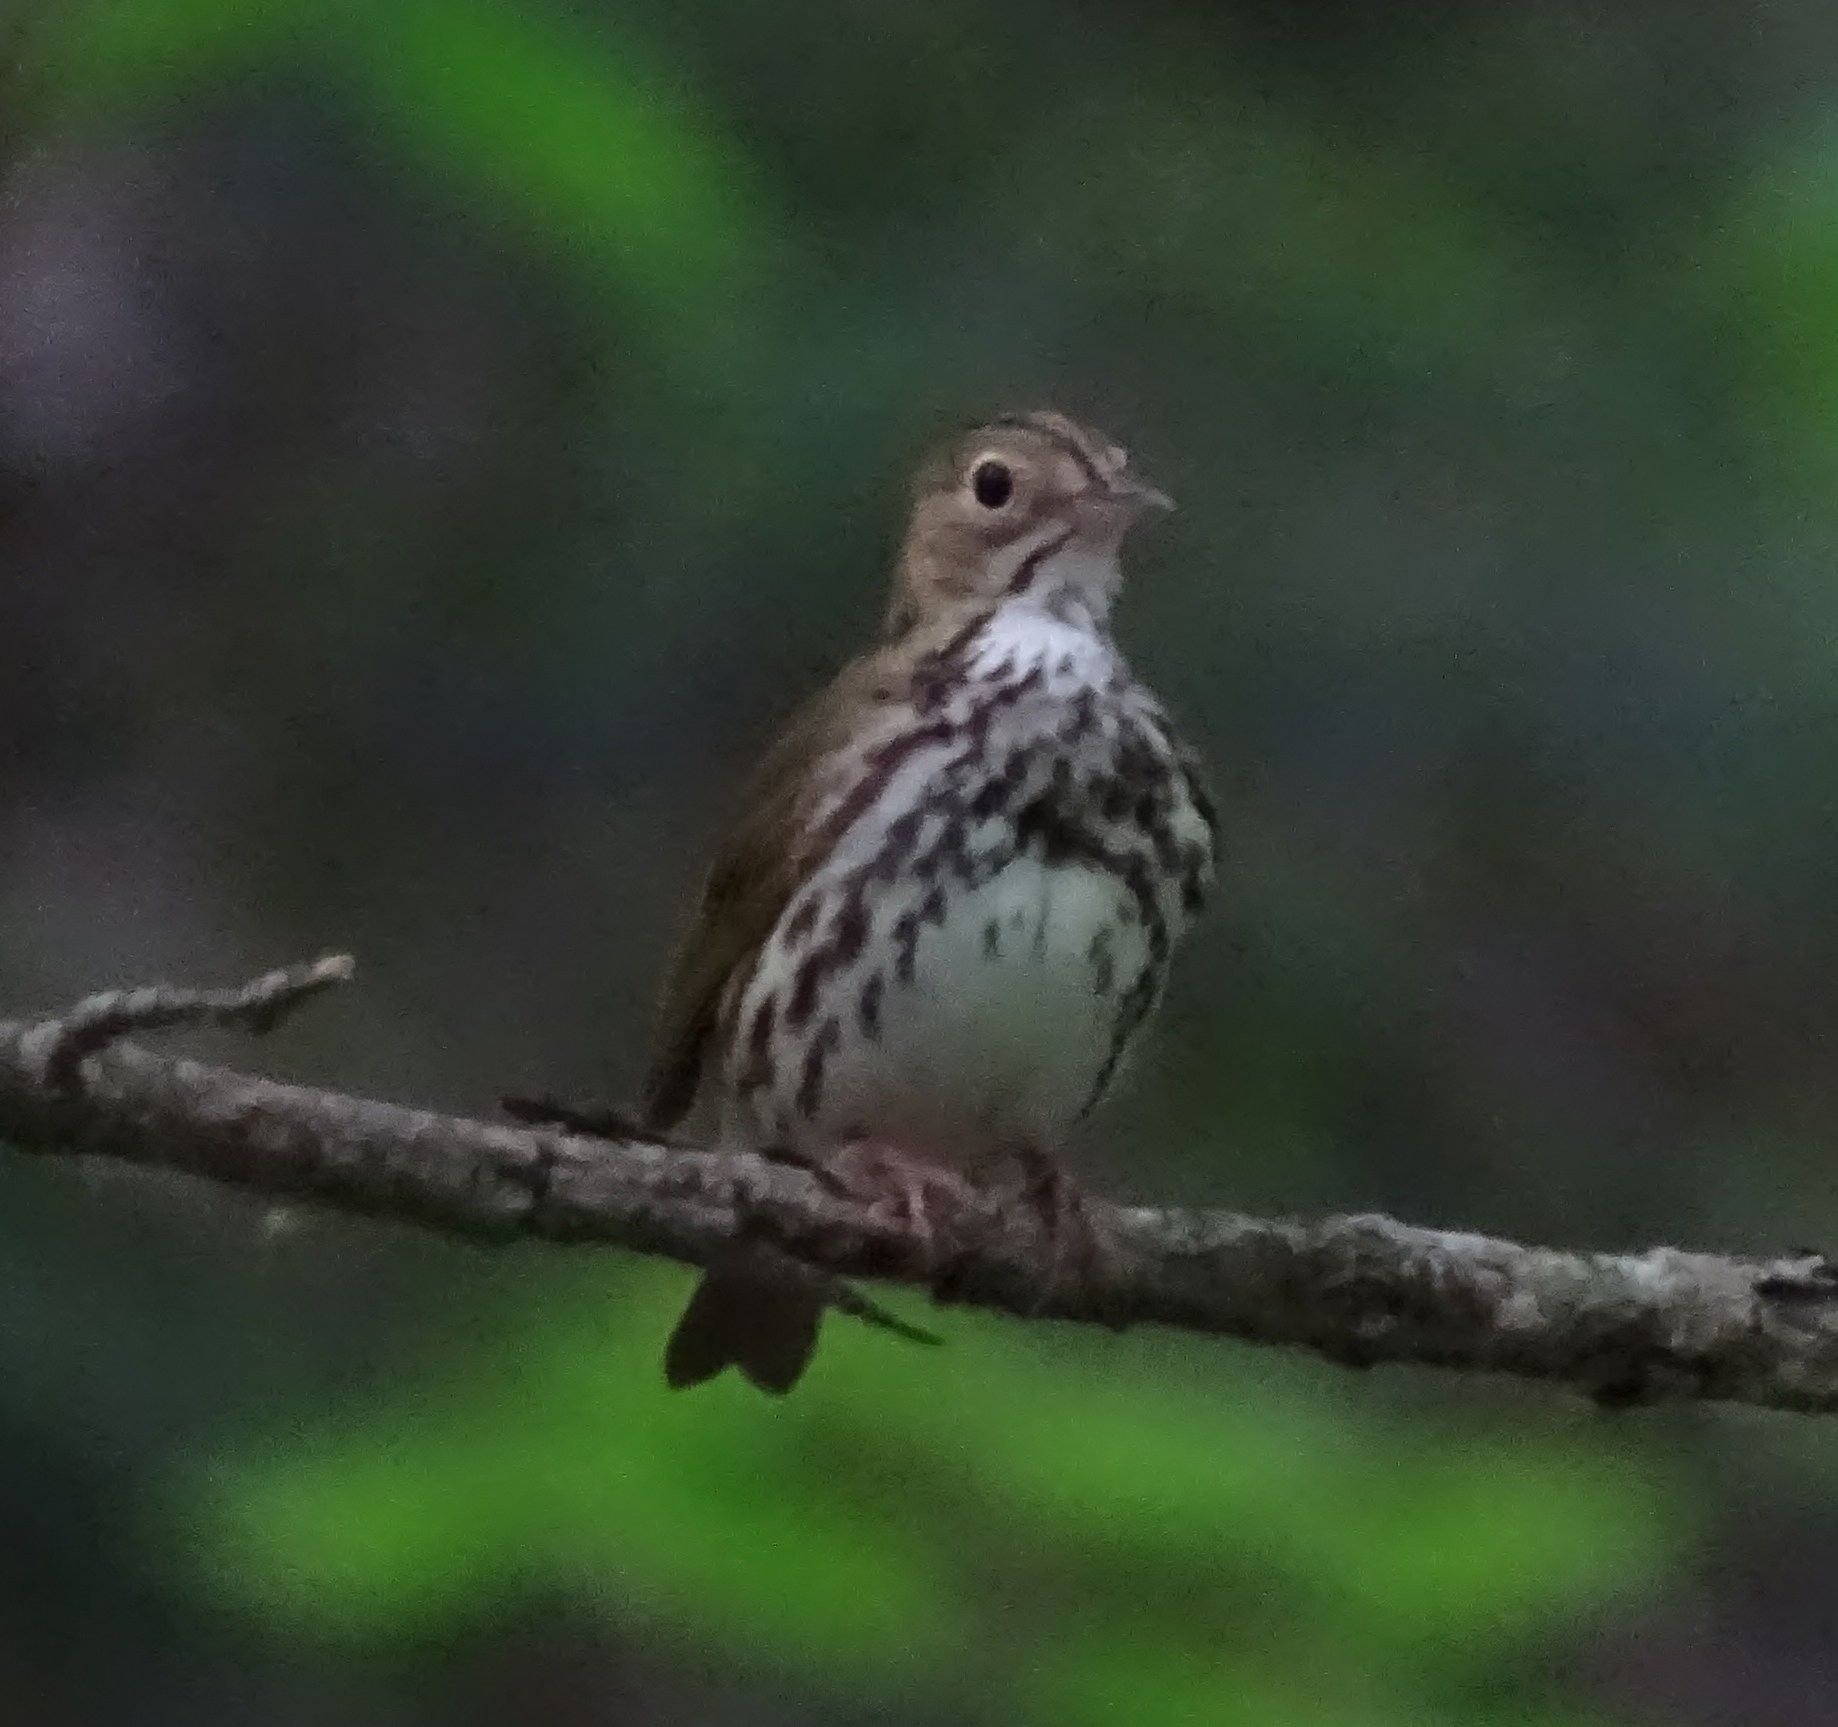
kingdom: Animalia
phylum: Chordata
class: Aves
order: Passeriformes
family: Parulidae
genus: Seiurus
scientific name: Seiurus aurocapilla
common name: Ovenbird
